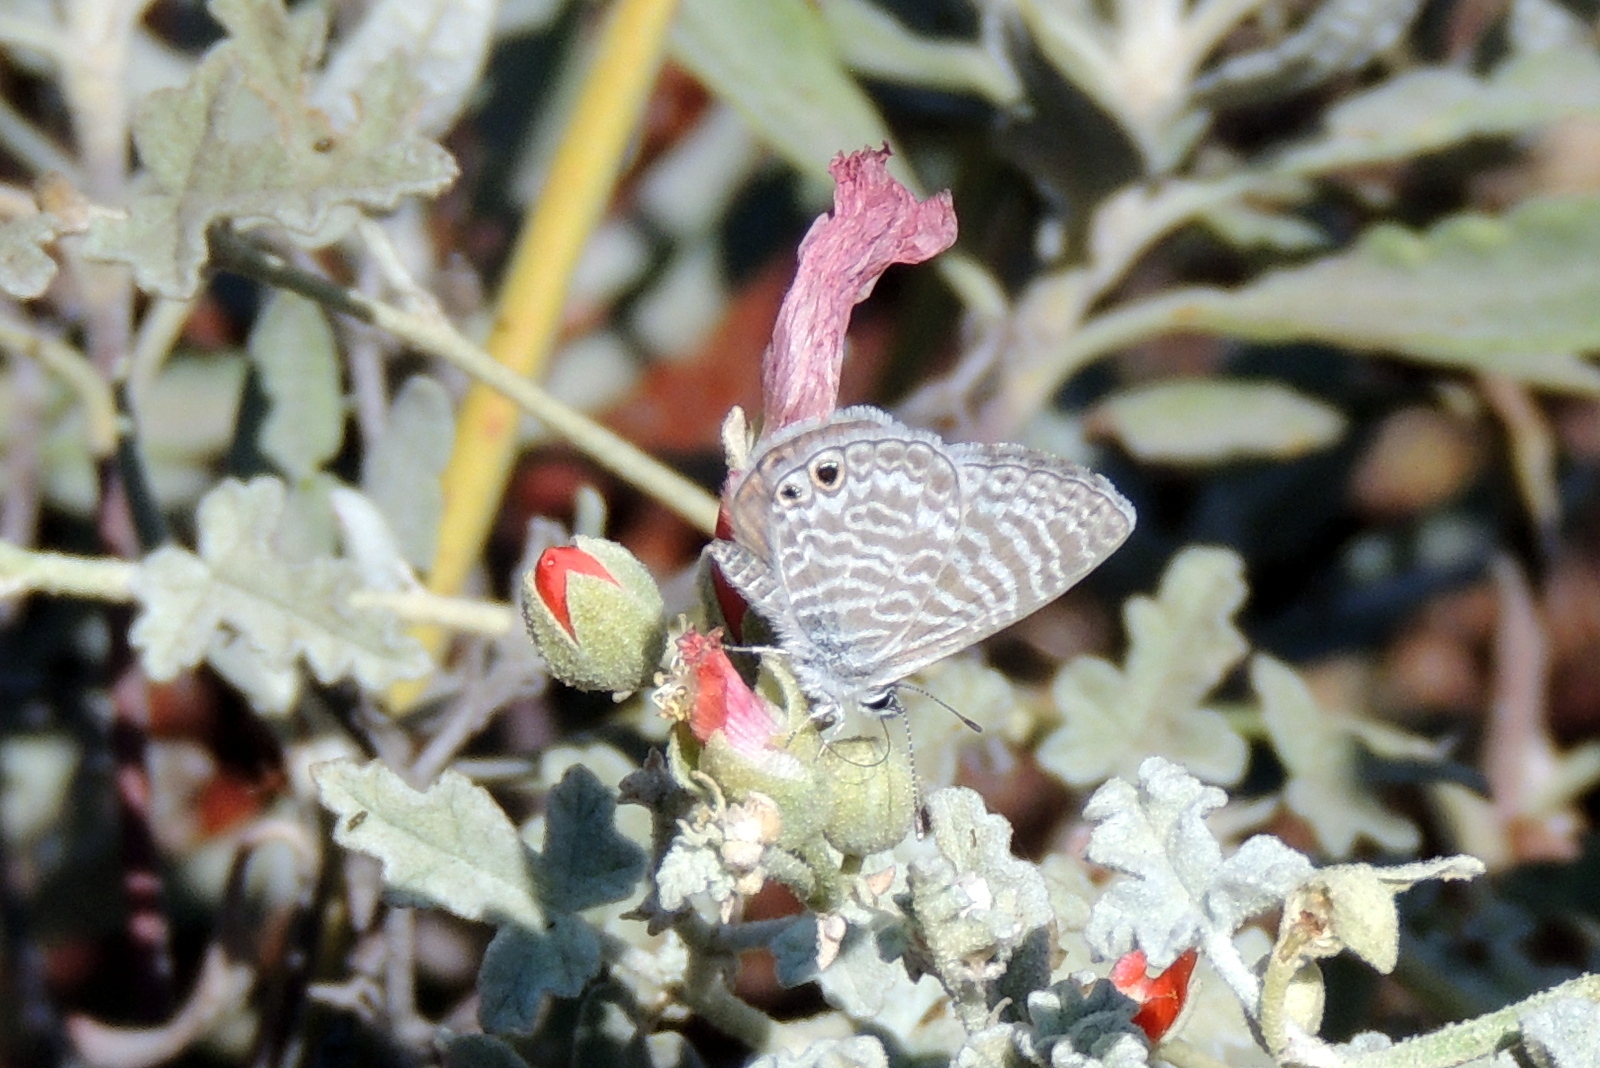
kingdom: Animalia
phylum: Arthropoda
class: Insecta
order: Lepidoptera
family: Lycaenidae
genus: Leptotes
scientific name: Leptotes marina
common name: Marine blue
